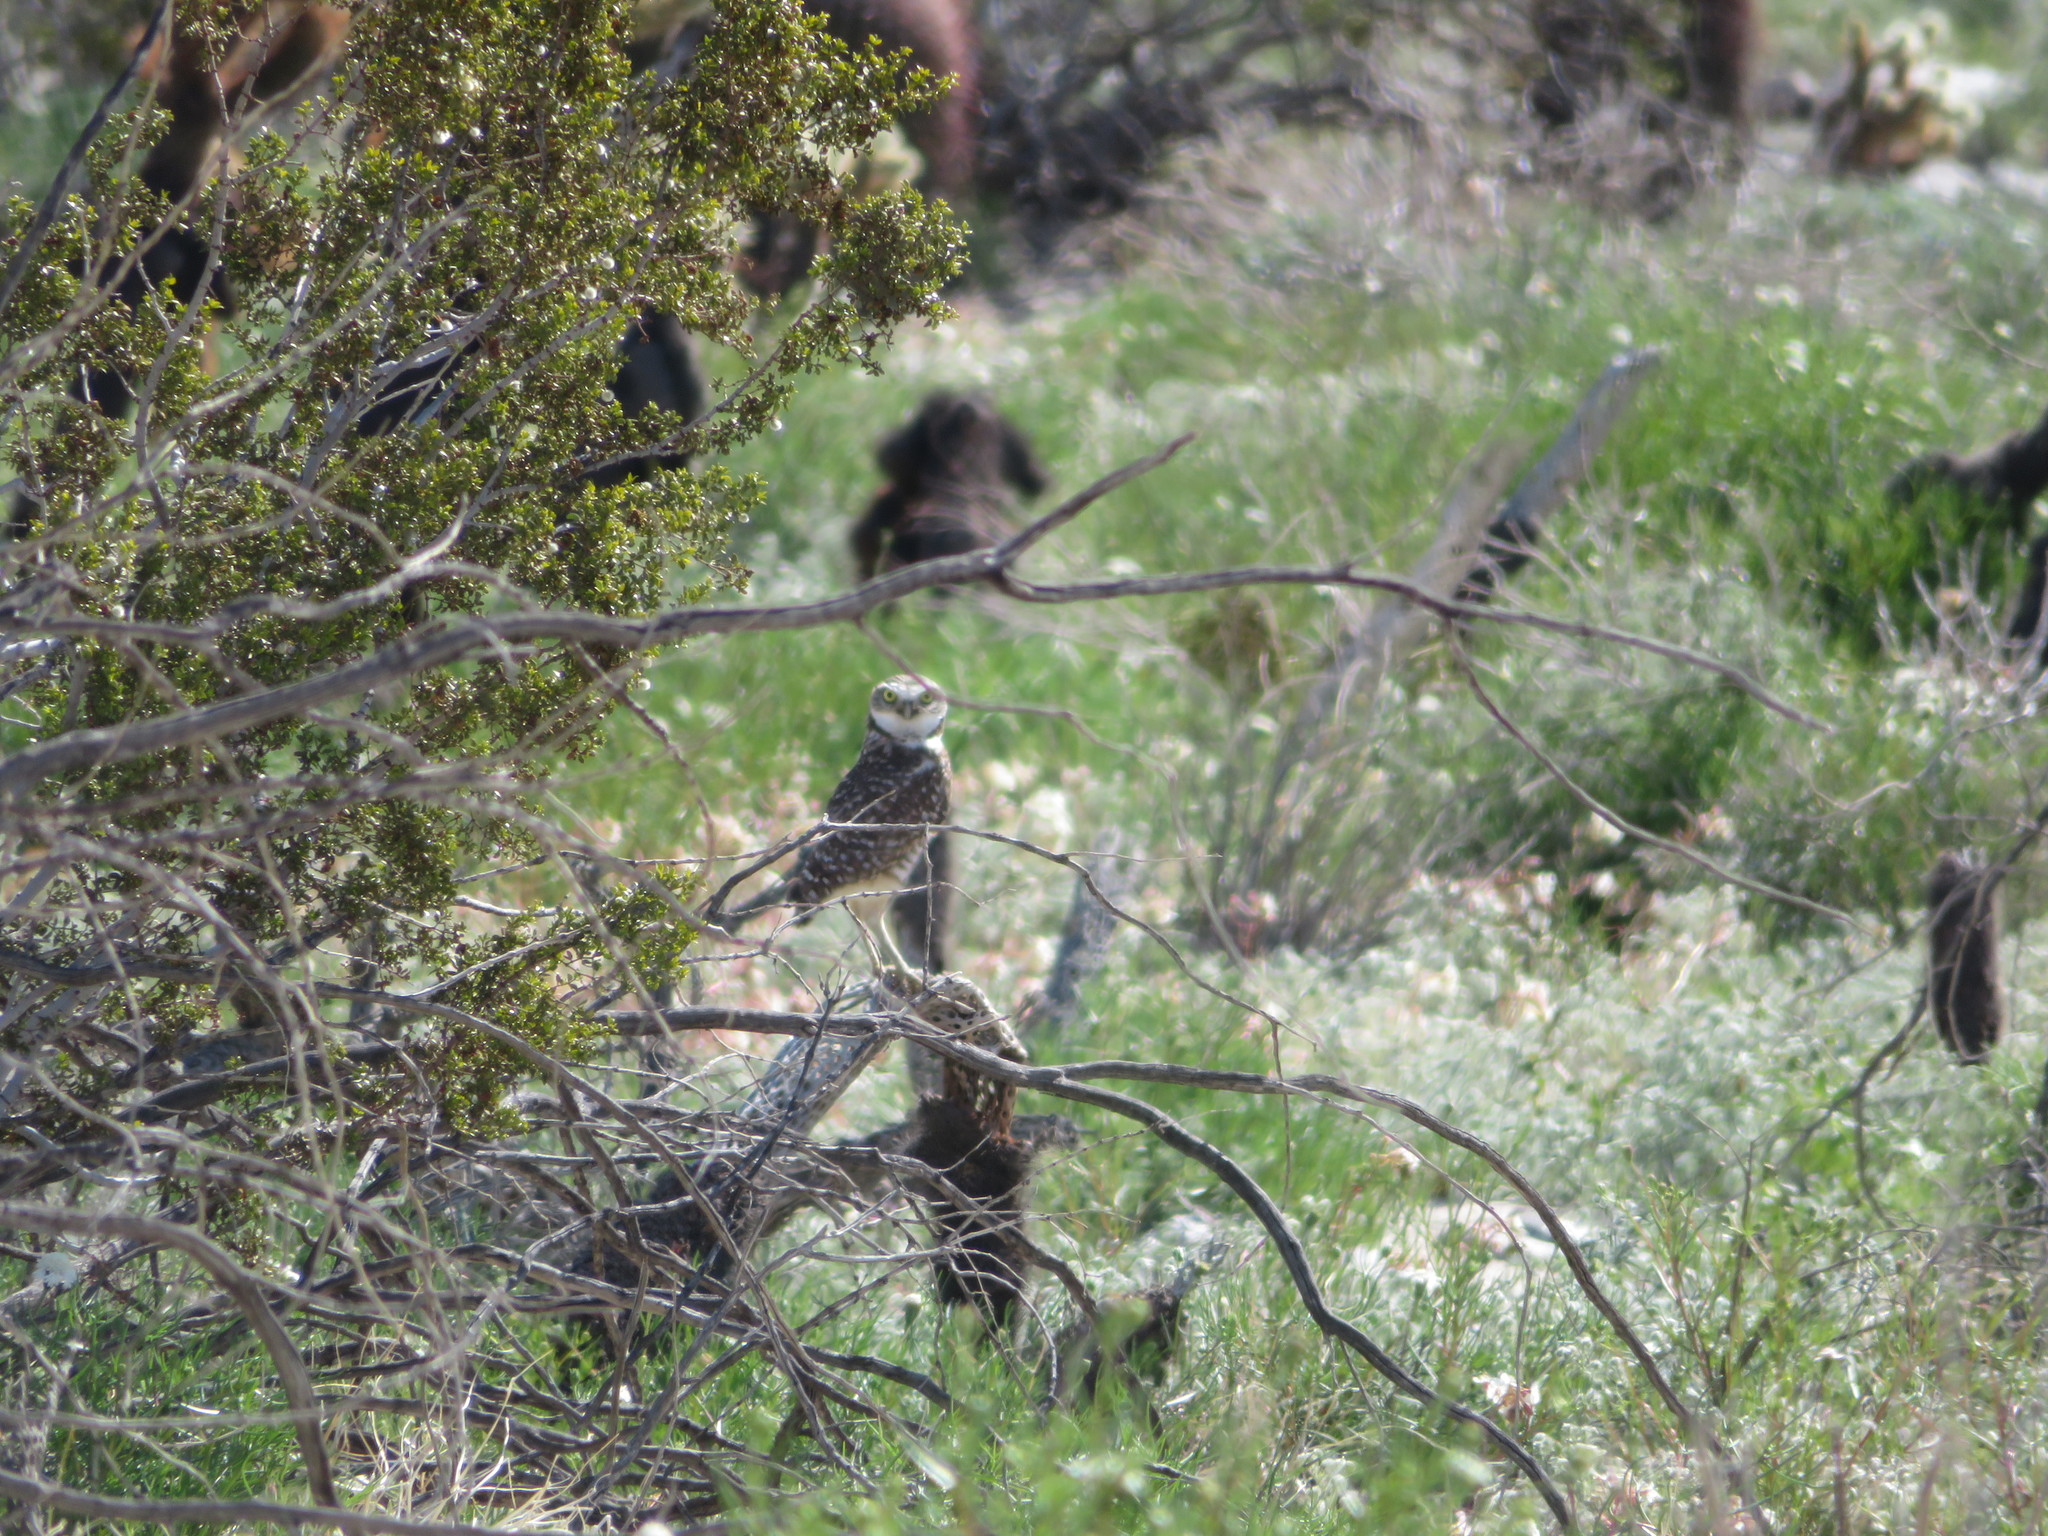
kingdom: Animalia
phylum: Chordata
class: Aves
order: Strigiformes
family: Strigidae
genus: Athene
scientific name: Athene cunicularia
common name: Burrowing owl
